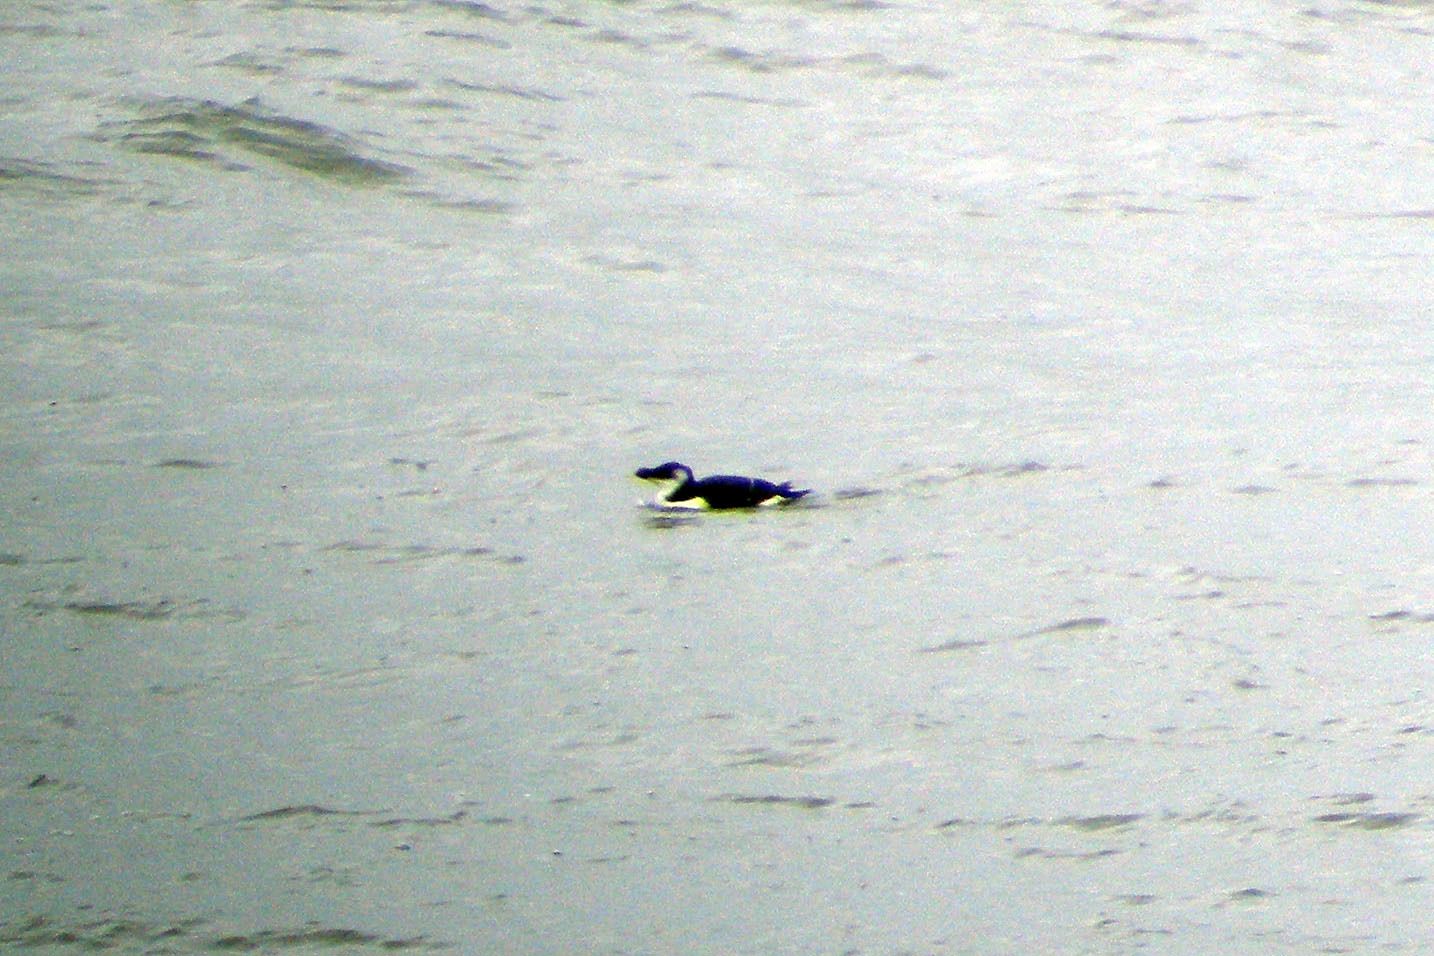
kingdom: Animalia
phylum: Chordata
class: Aves
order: Charadriiformes
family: Alcidae
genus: Alca
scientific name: Alca torda
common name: Razorbill
